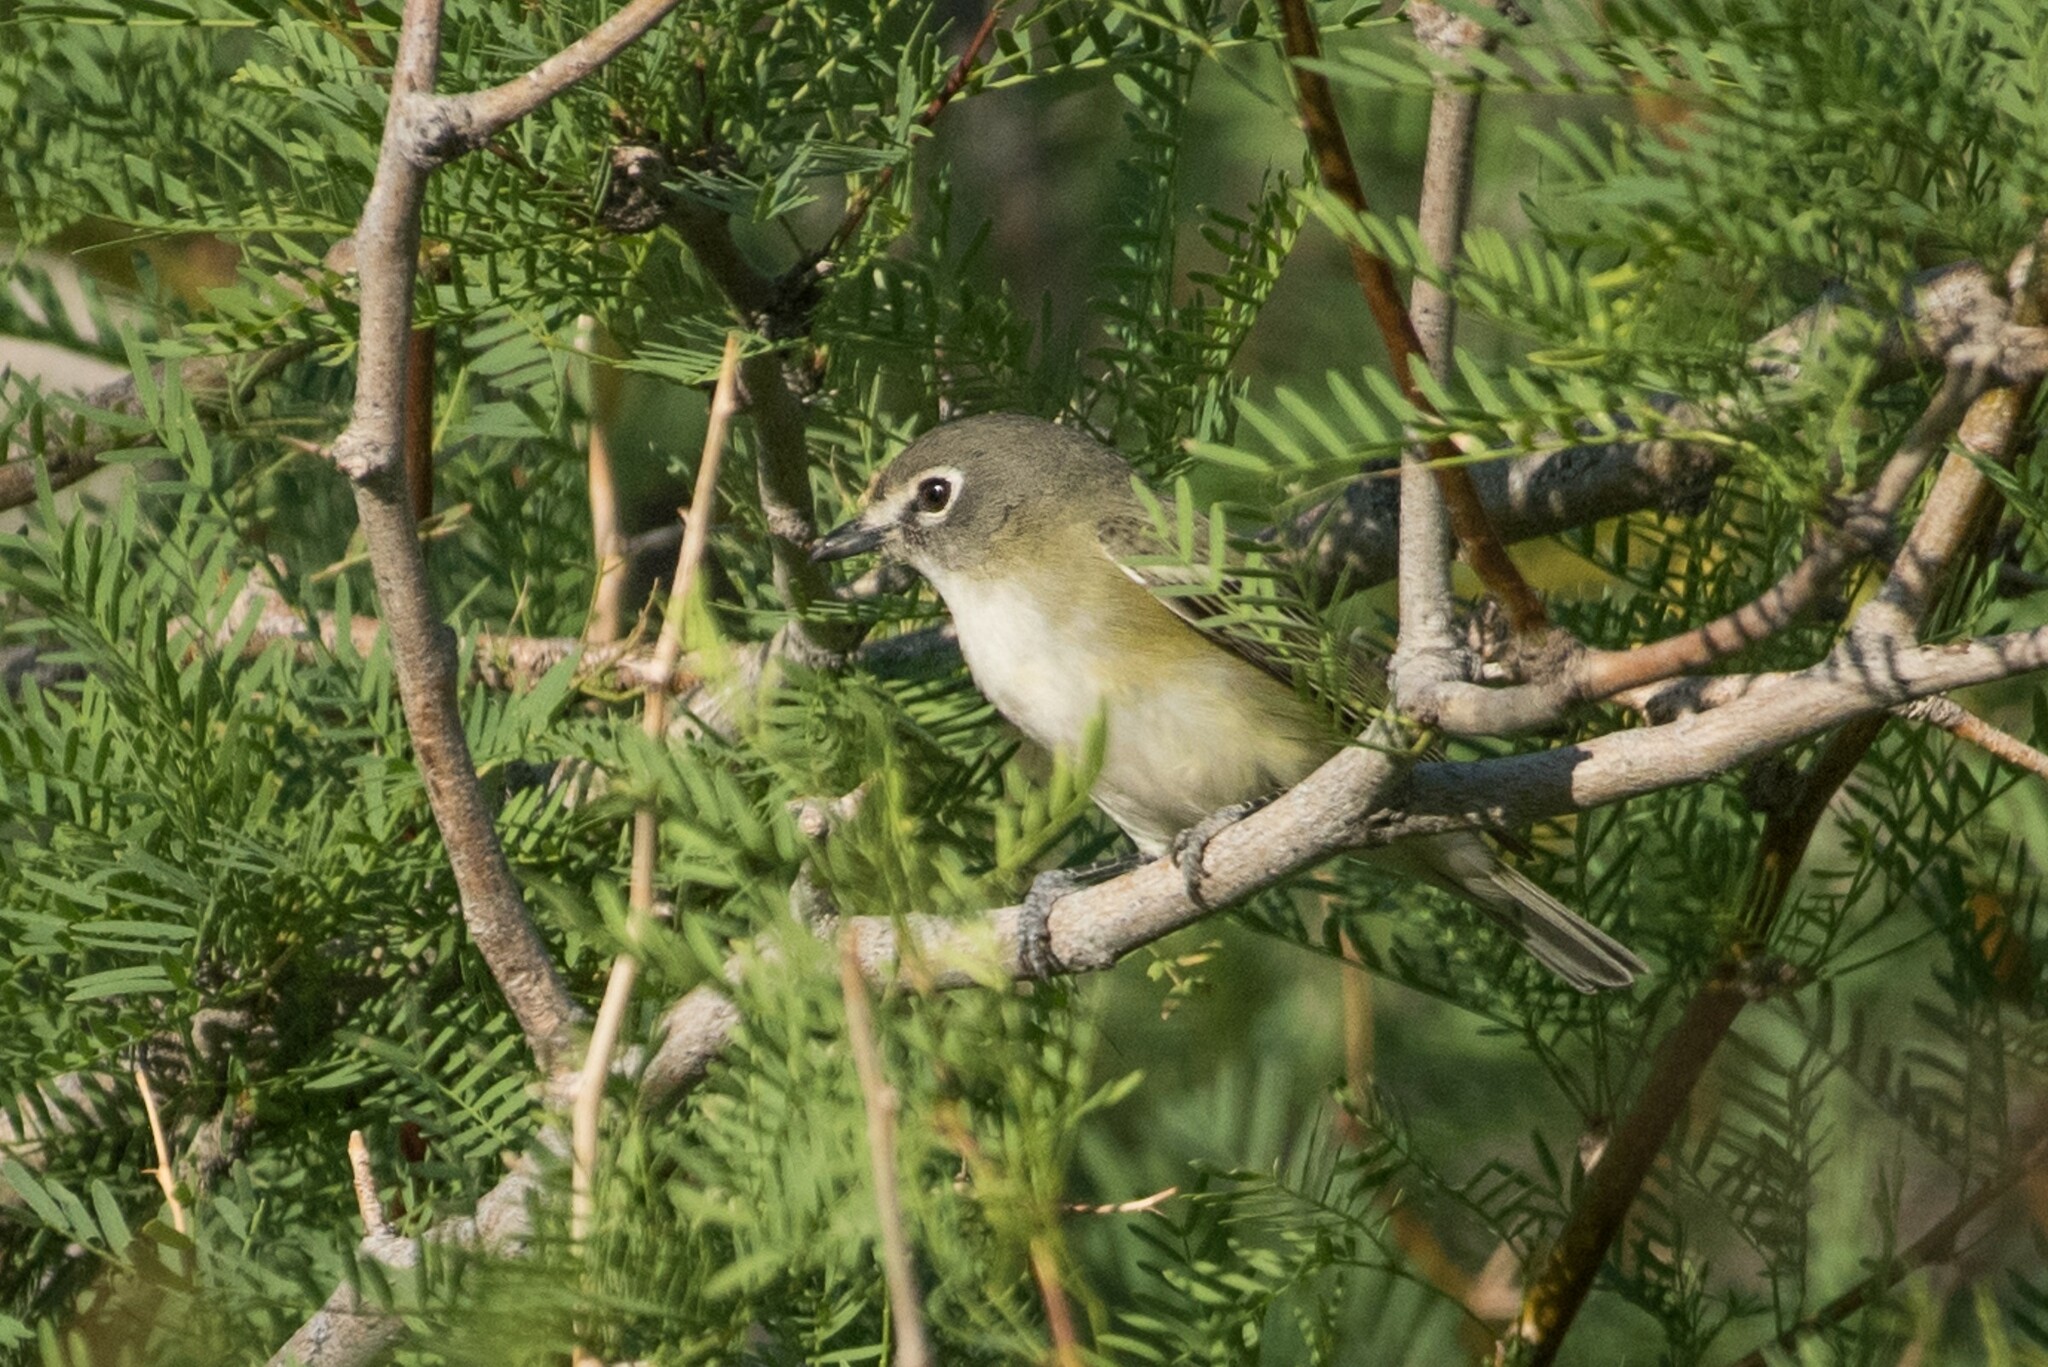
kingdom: Animalia
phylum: Chordata
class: Aves
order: Passeriformes
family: Vireonidae
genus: Vireo
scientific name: Vireo cassinii
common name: Cassin's vireo
